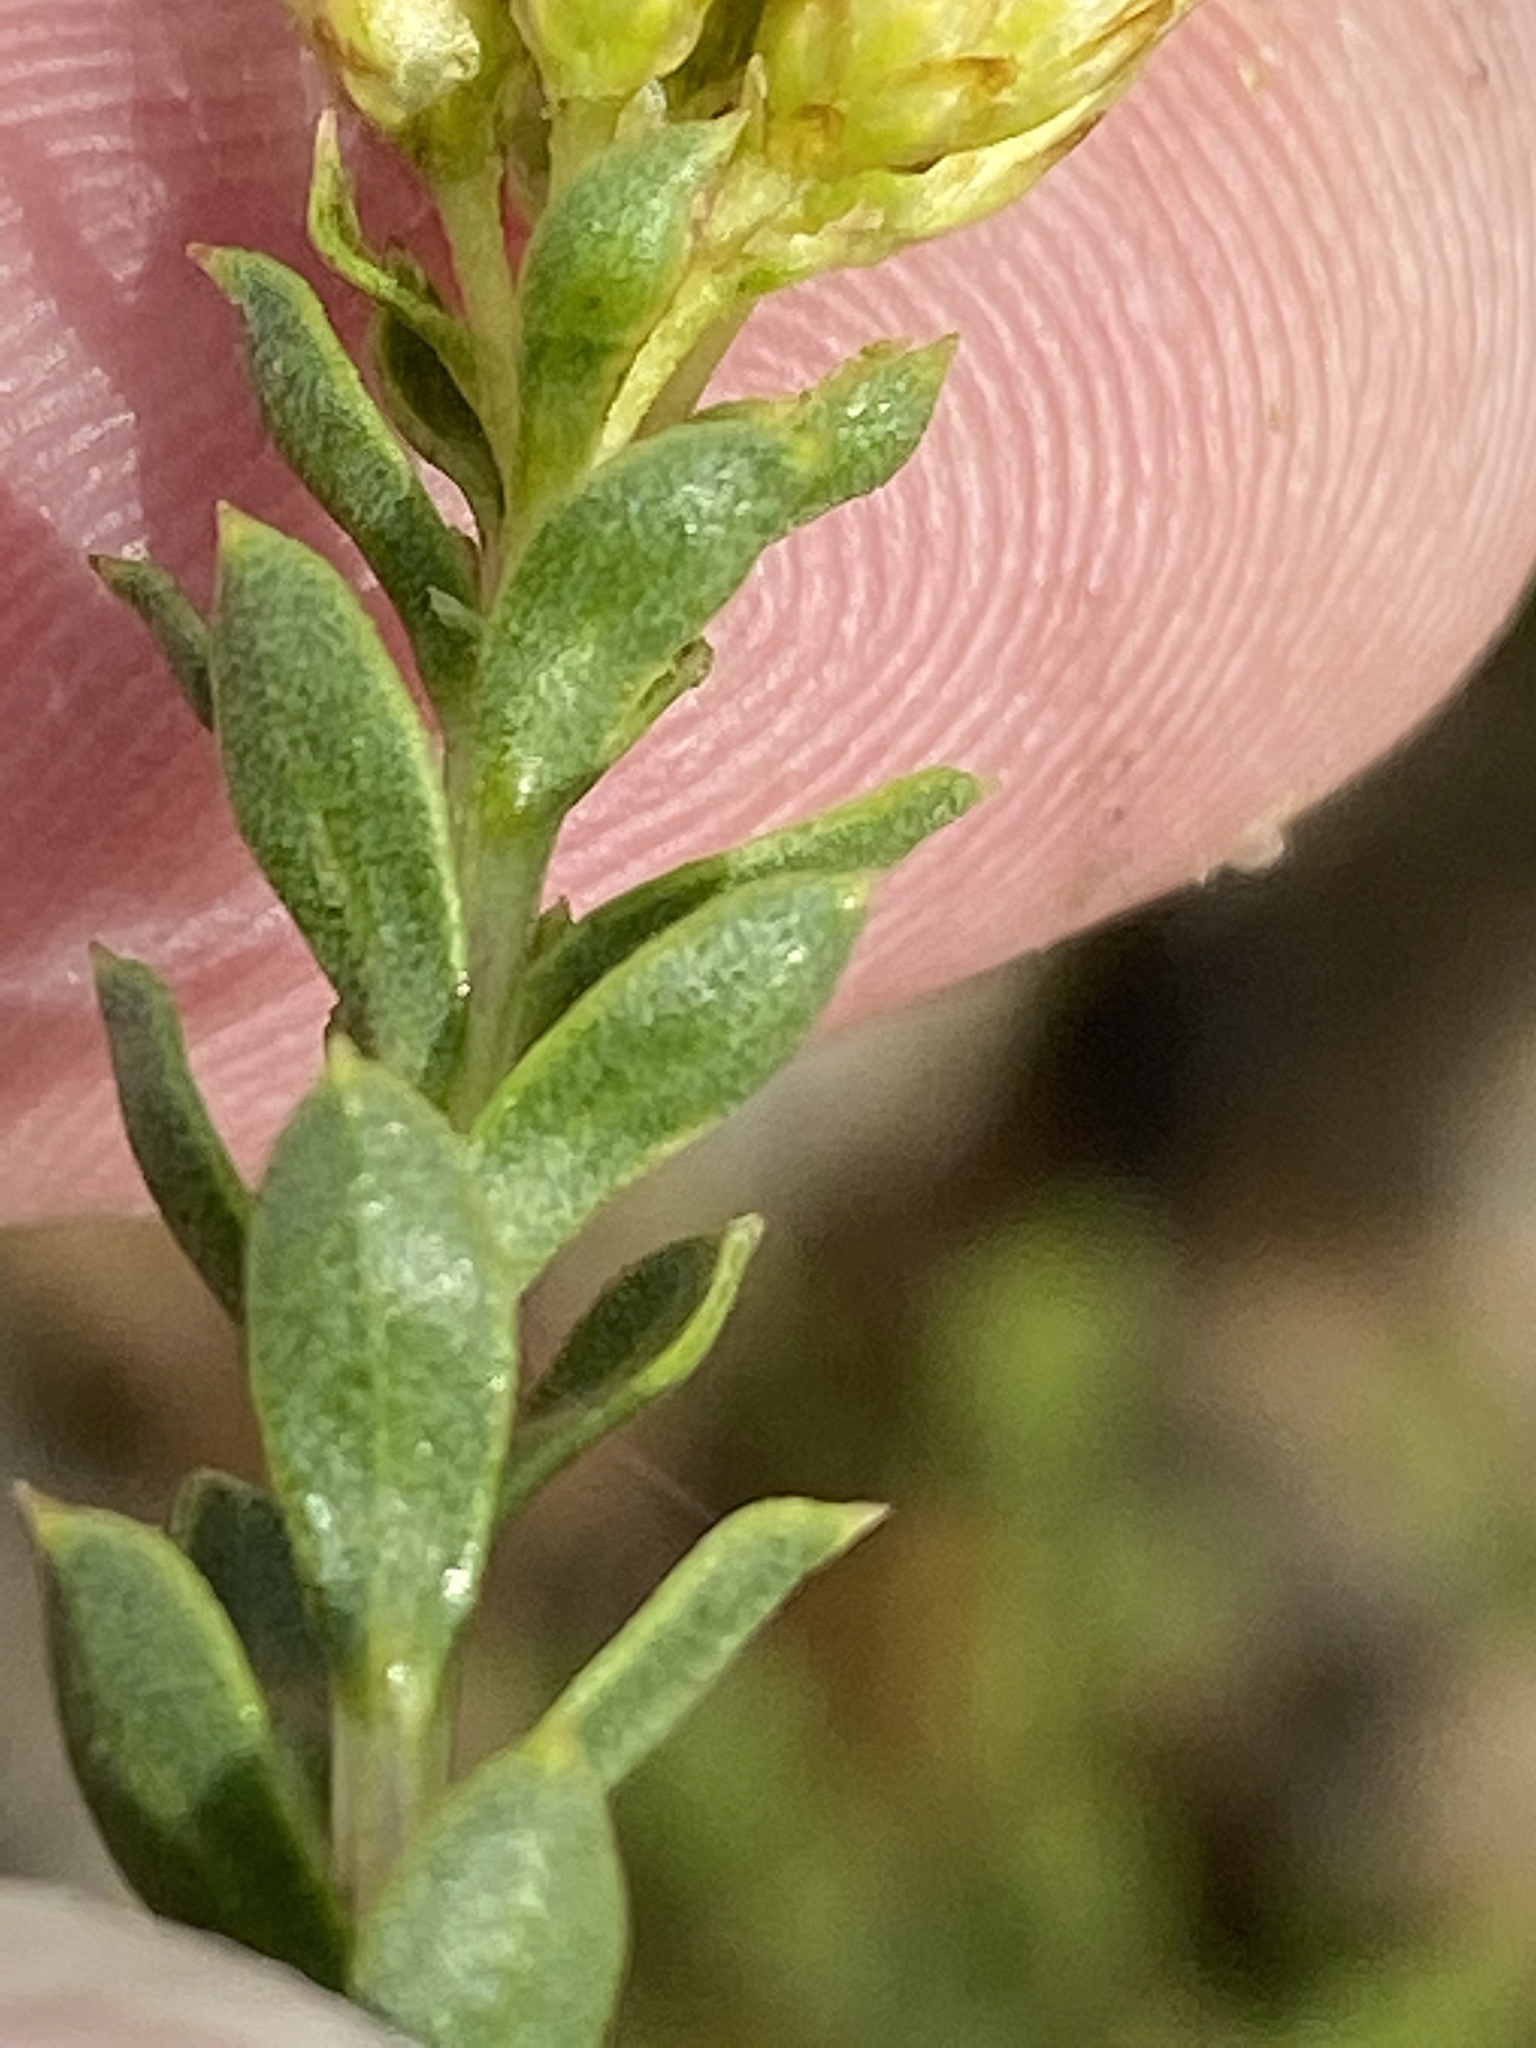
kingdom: Plantae
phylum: Tracheophyta
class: Magnoliopsida
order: Asterales
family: Asteraceae
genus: Oedera
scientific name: Oedera squarrosa
